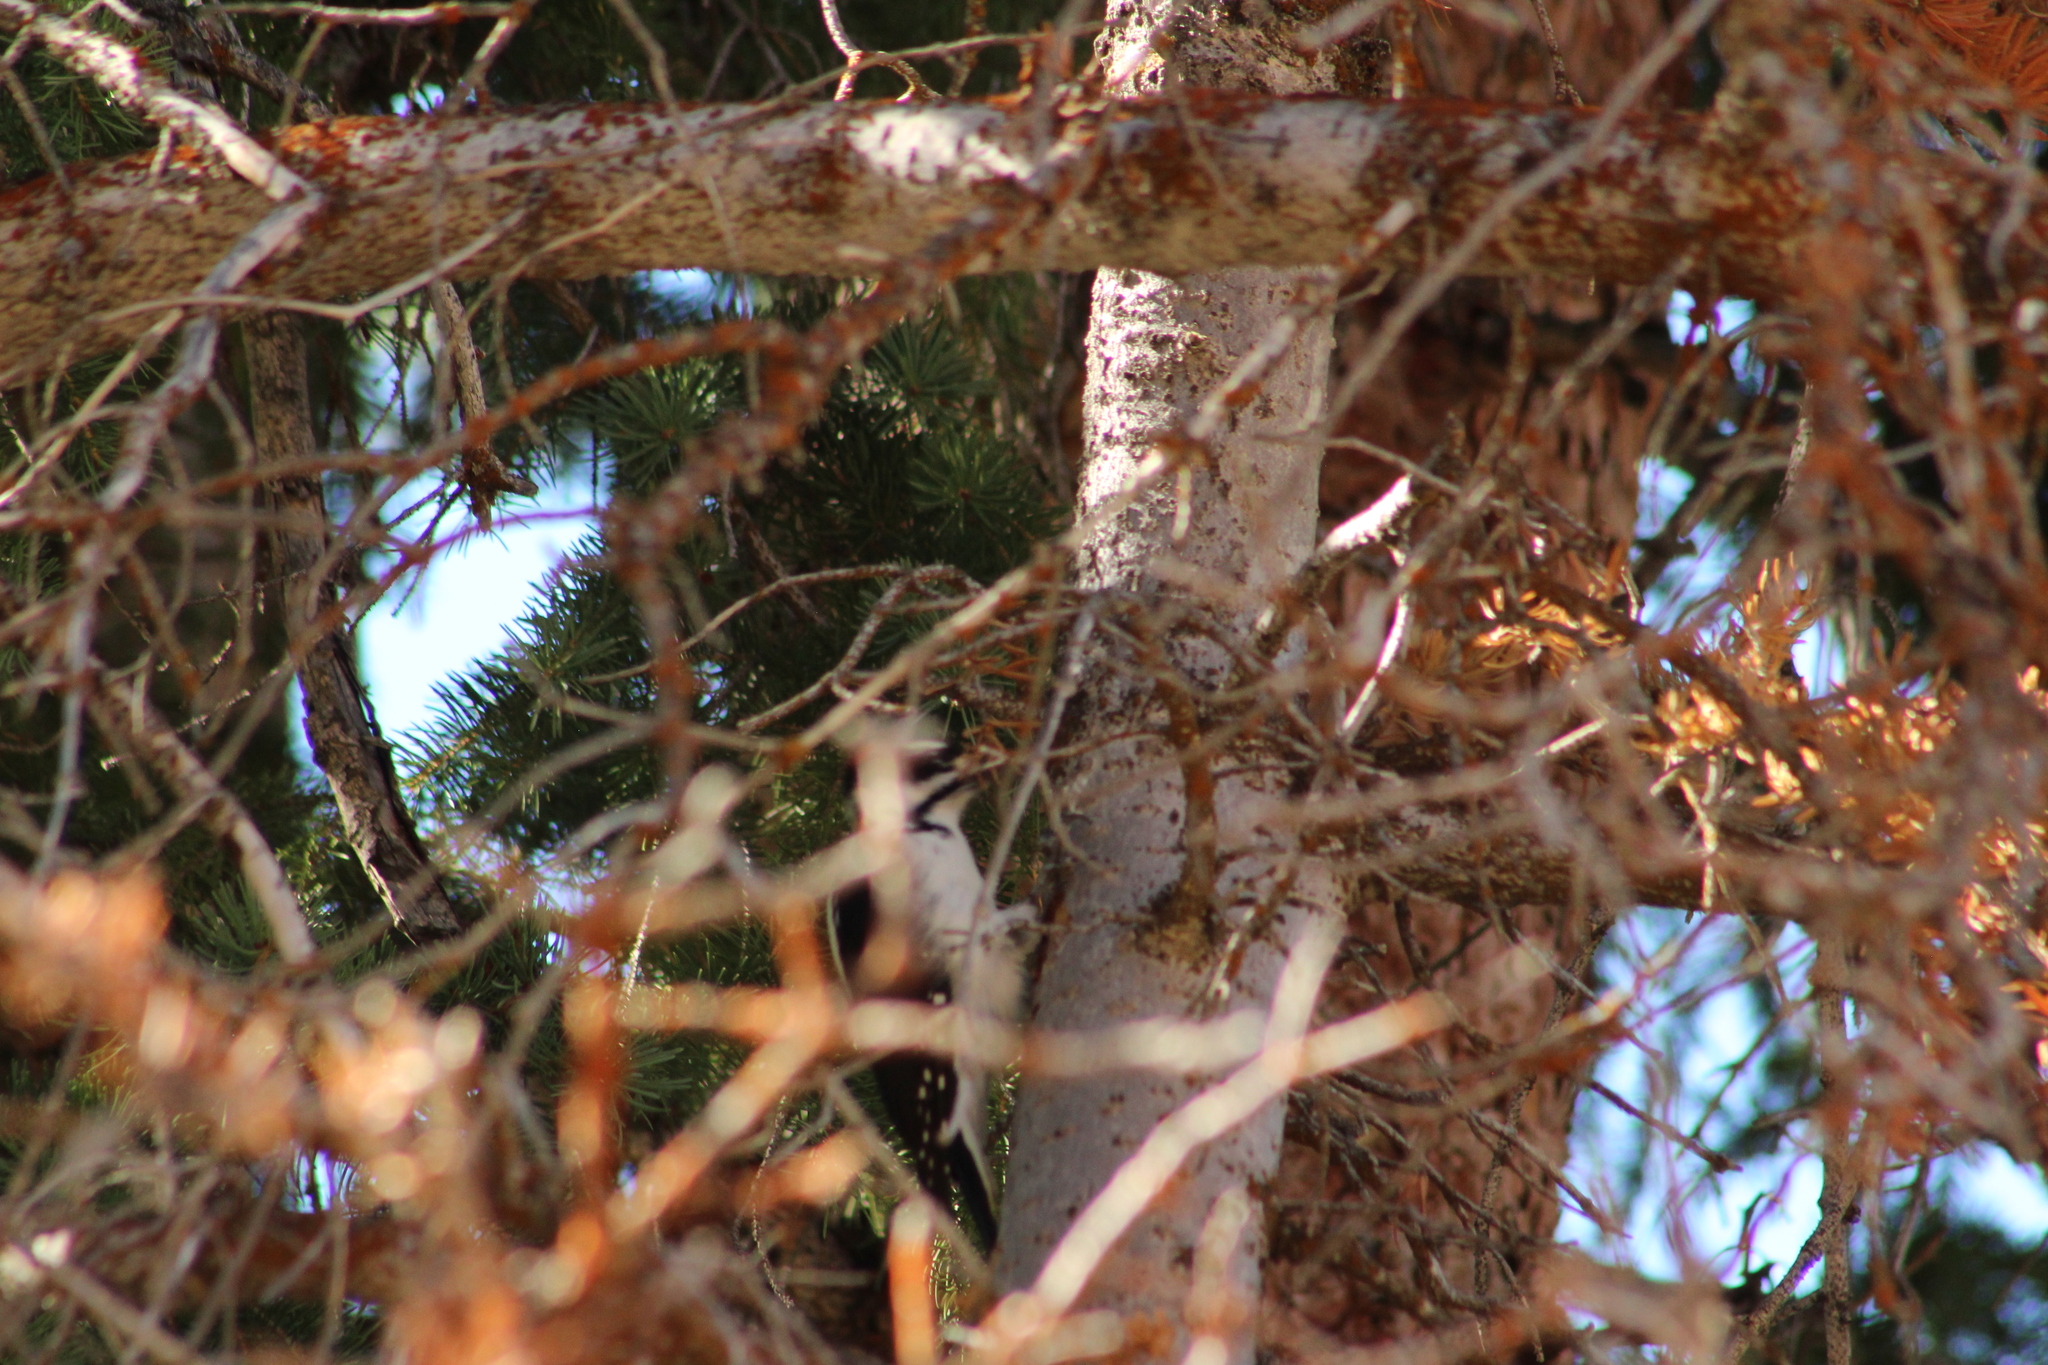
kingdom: Animalia
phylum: Chordata
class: Aves
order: Piciformes
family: Picidae
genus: Leuconotopicus
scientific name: Leuconotopicus villosus
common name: Hairy woodpecker
